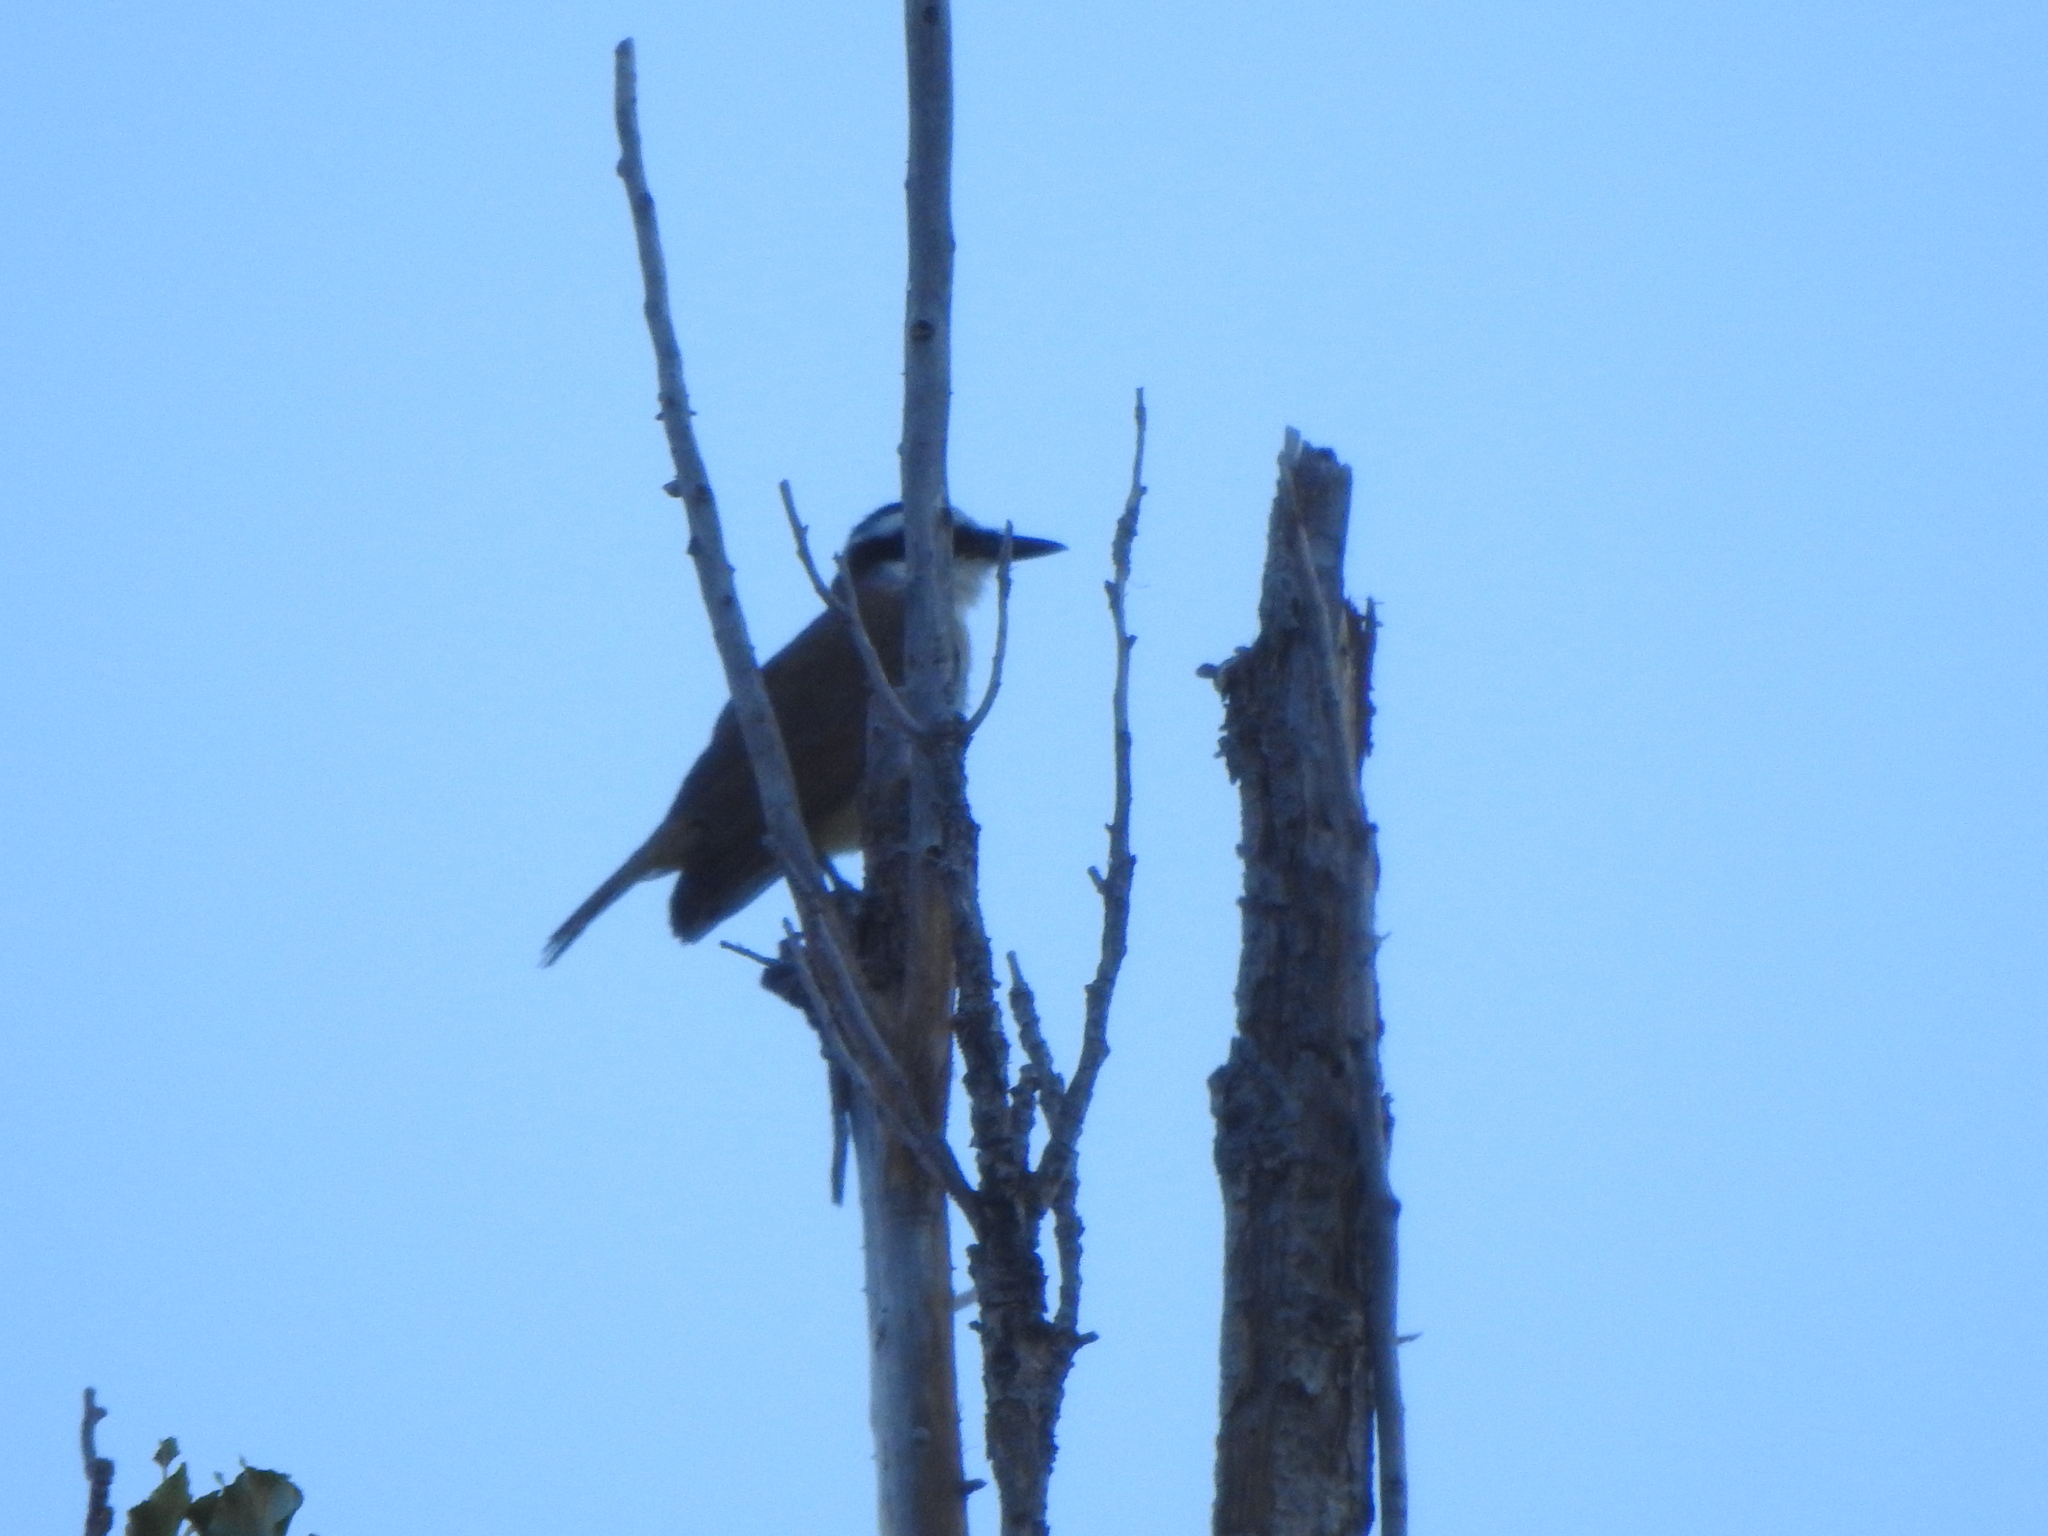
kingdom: Animalia
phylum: Chordata
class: Aves
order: Passeriformes
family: Tyrannidae
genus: Pitangus
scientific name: Pitangus sulphuratus
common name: Great kiskadee
